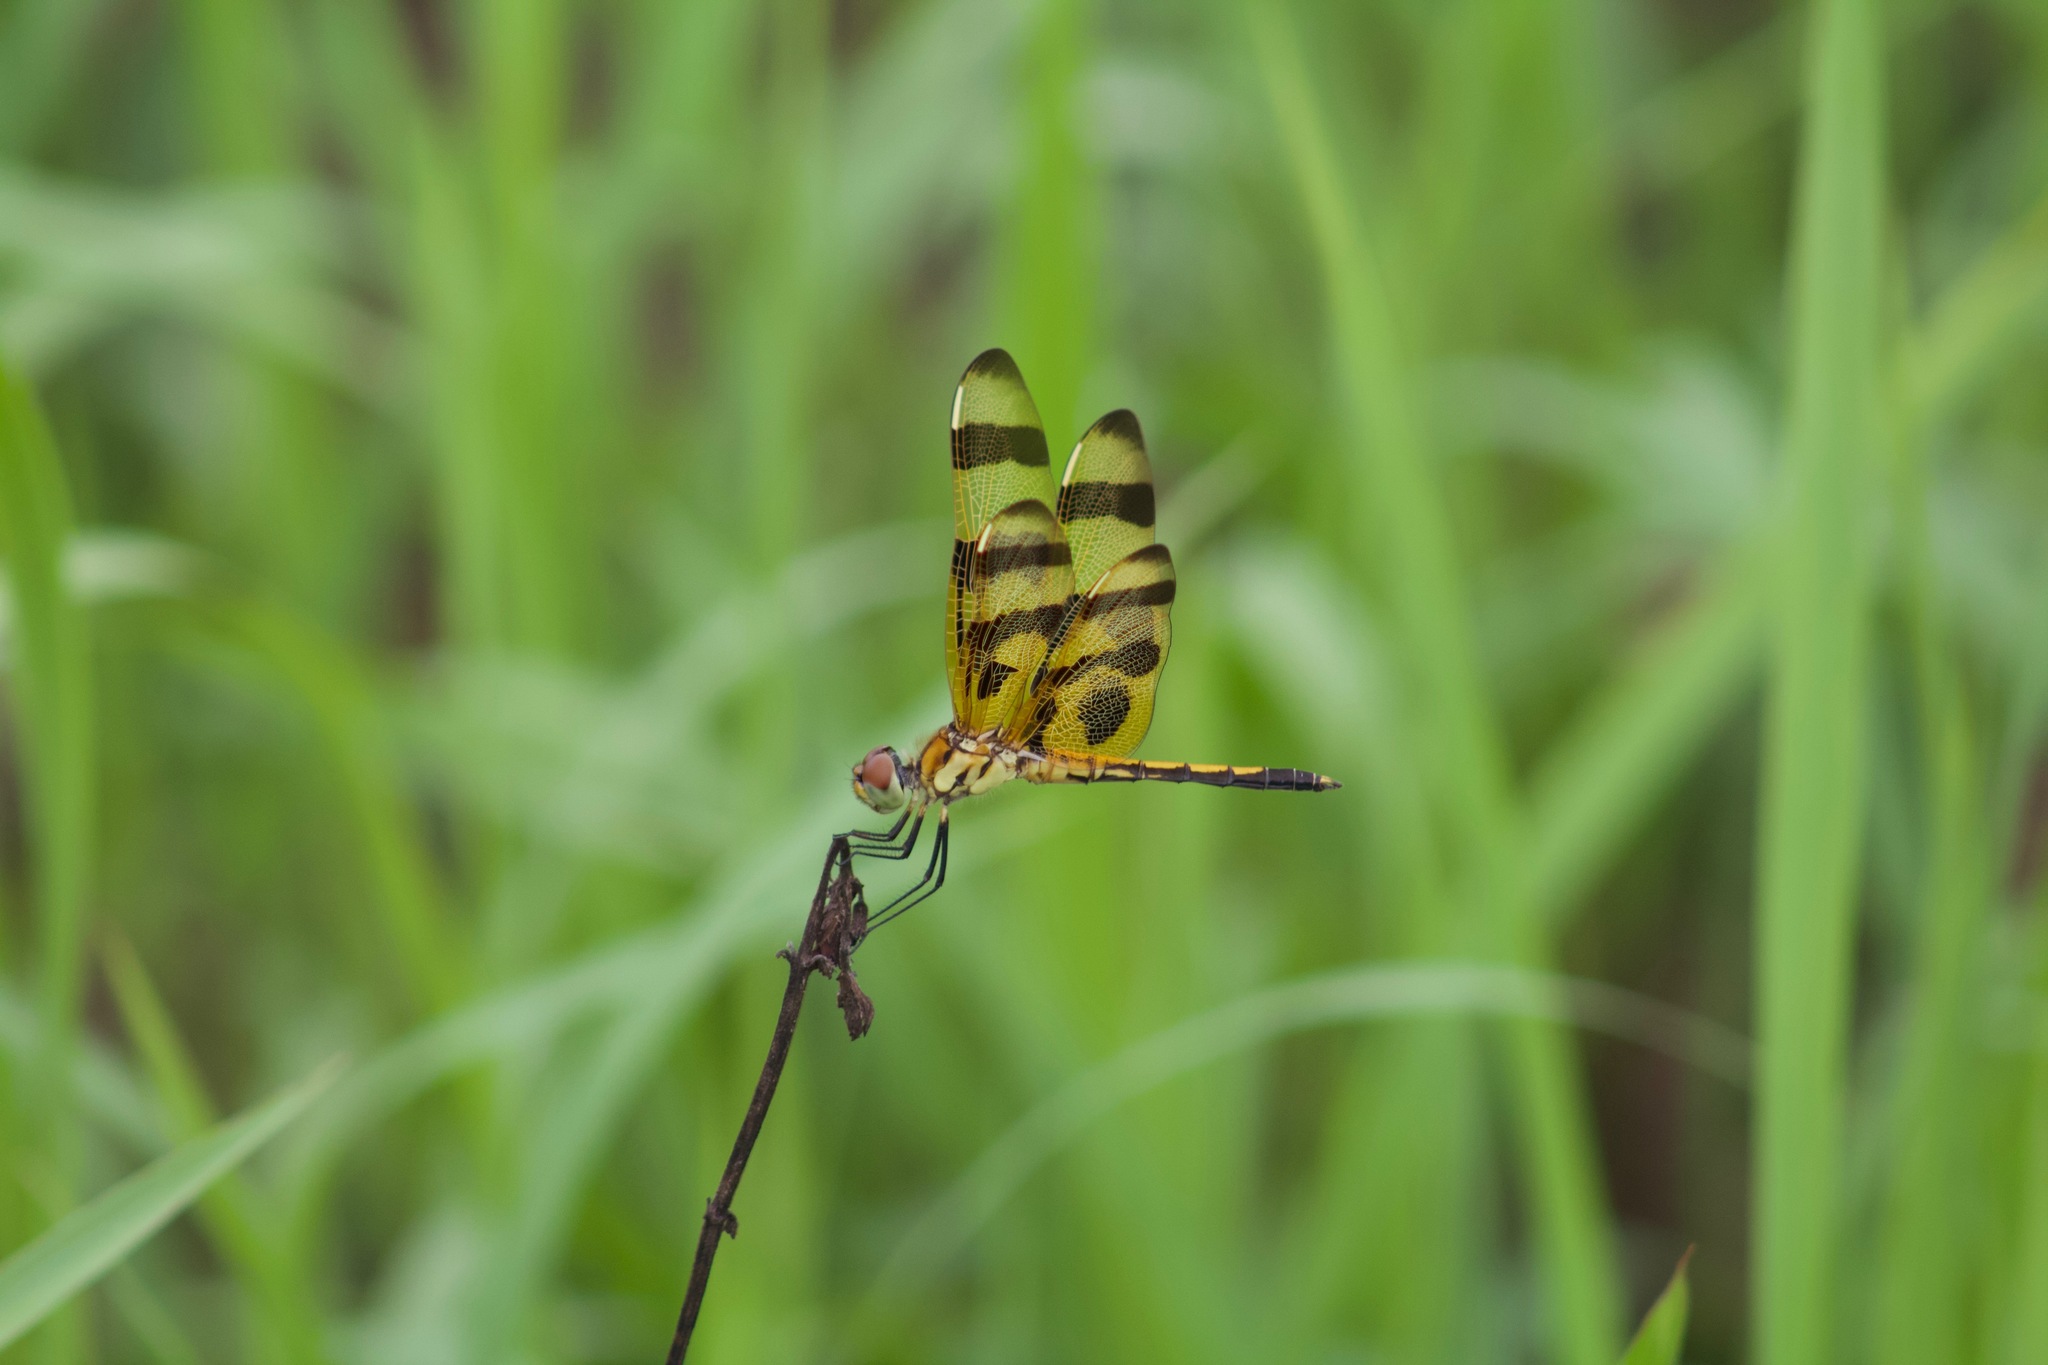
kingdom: Animalia
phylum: Arthropoda
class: Insecta
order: Odonata
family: Libellulidae
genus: Celithemis
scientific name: Celithemis eponina
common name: Halloween pennant
